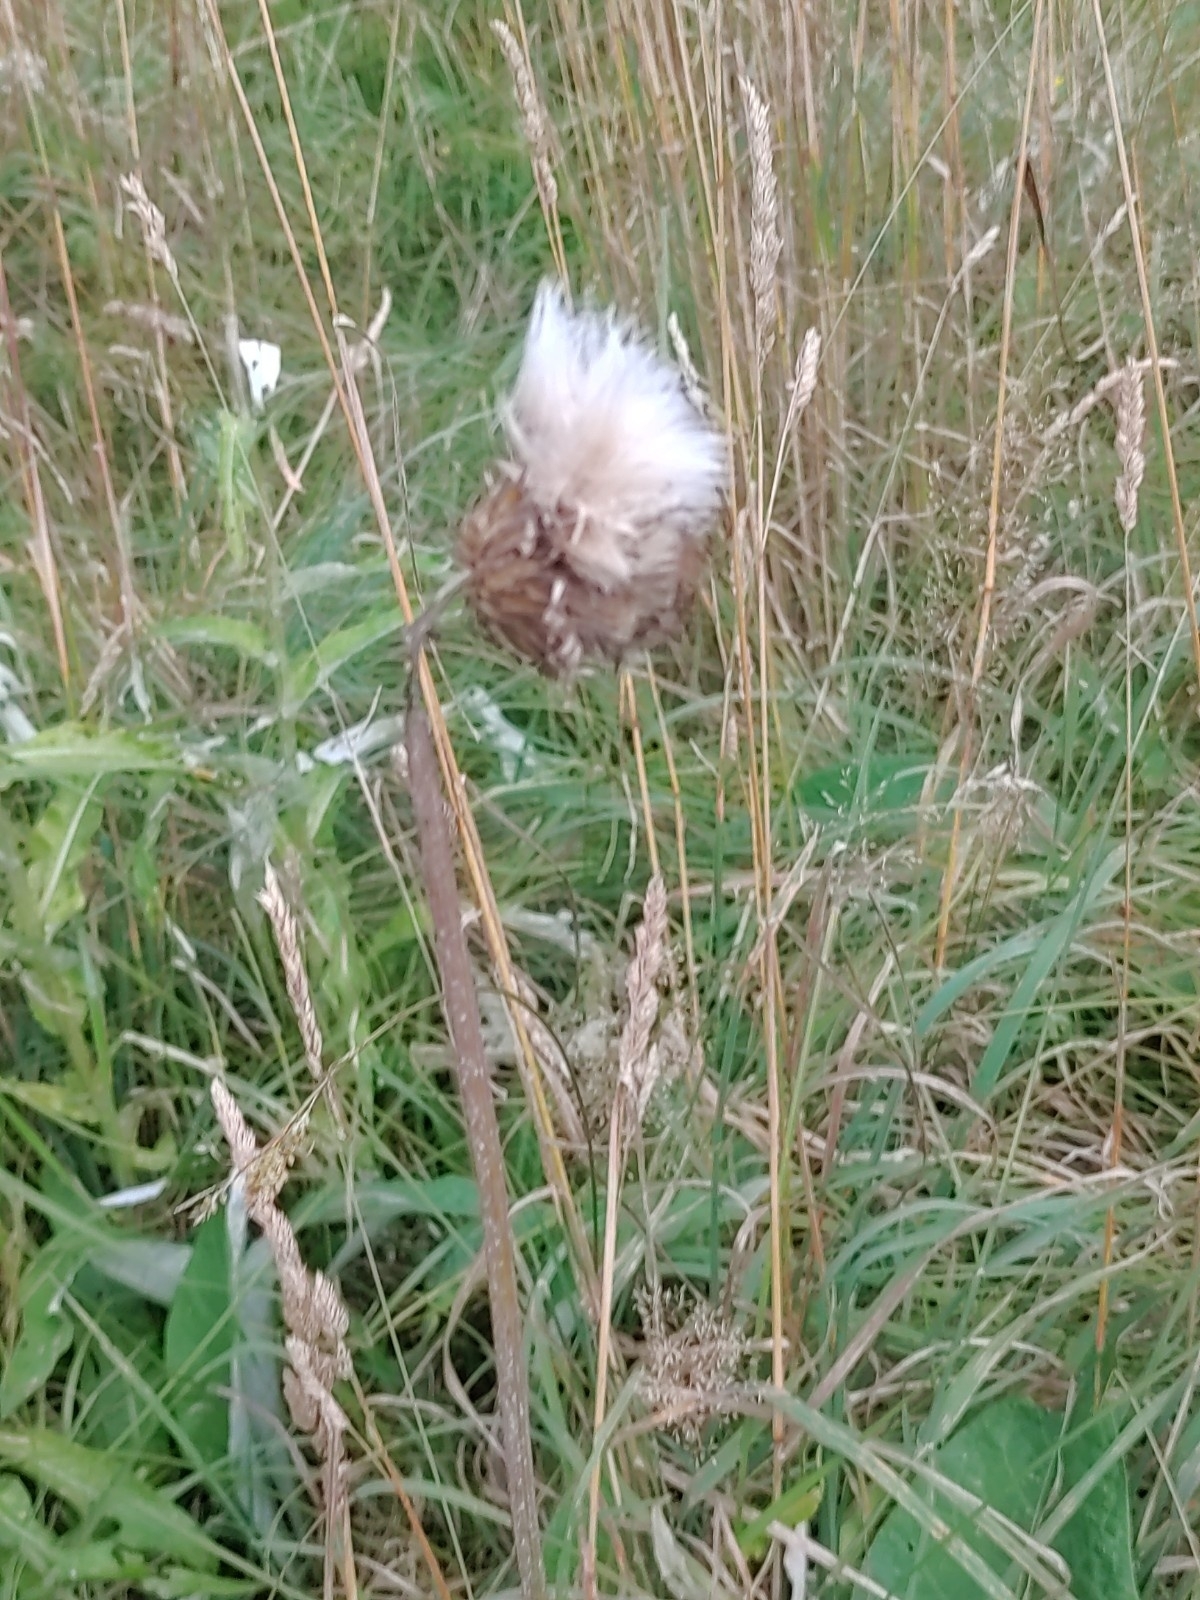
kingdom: Plantae
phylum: Tracheophyta
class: Magnoliopsida
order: Asterales
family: Asteraceae
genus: Cirsium
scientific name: Cirsium heterophyllum
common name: Melancholy thistle
